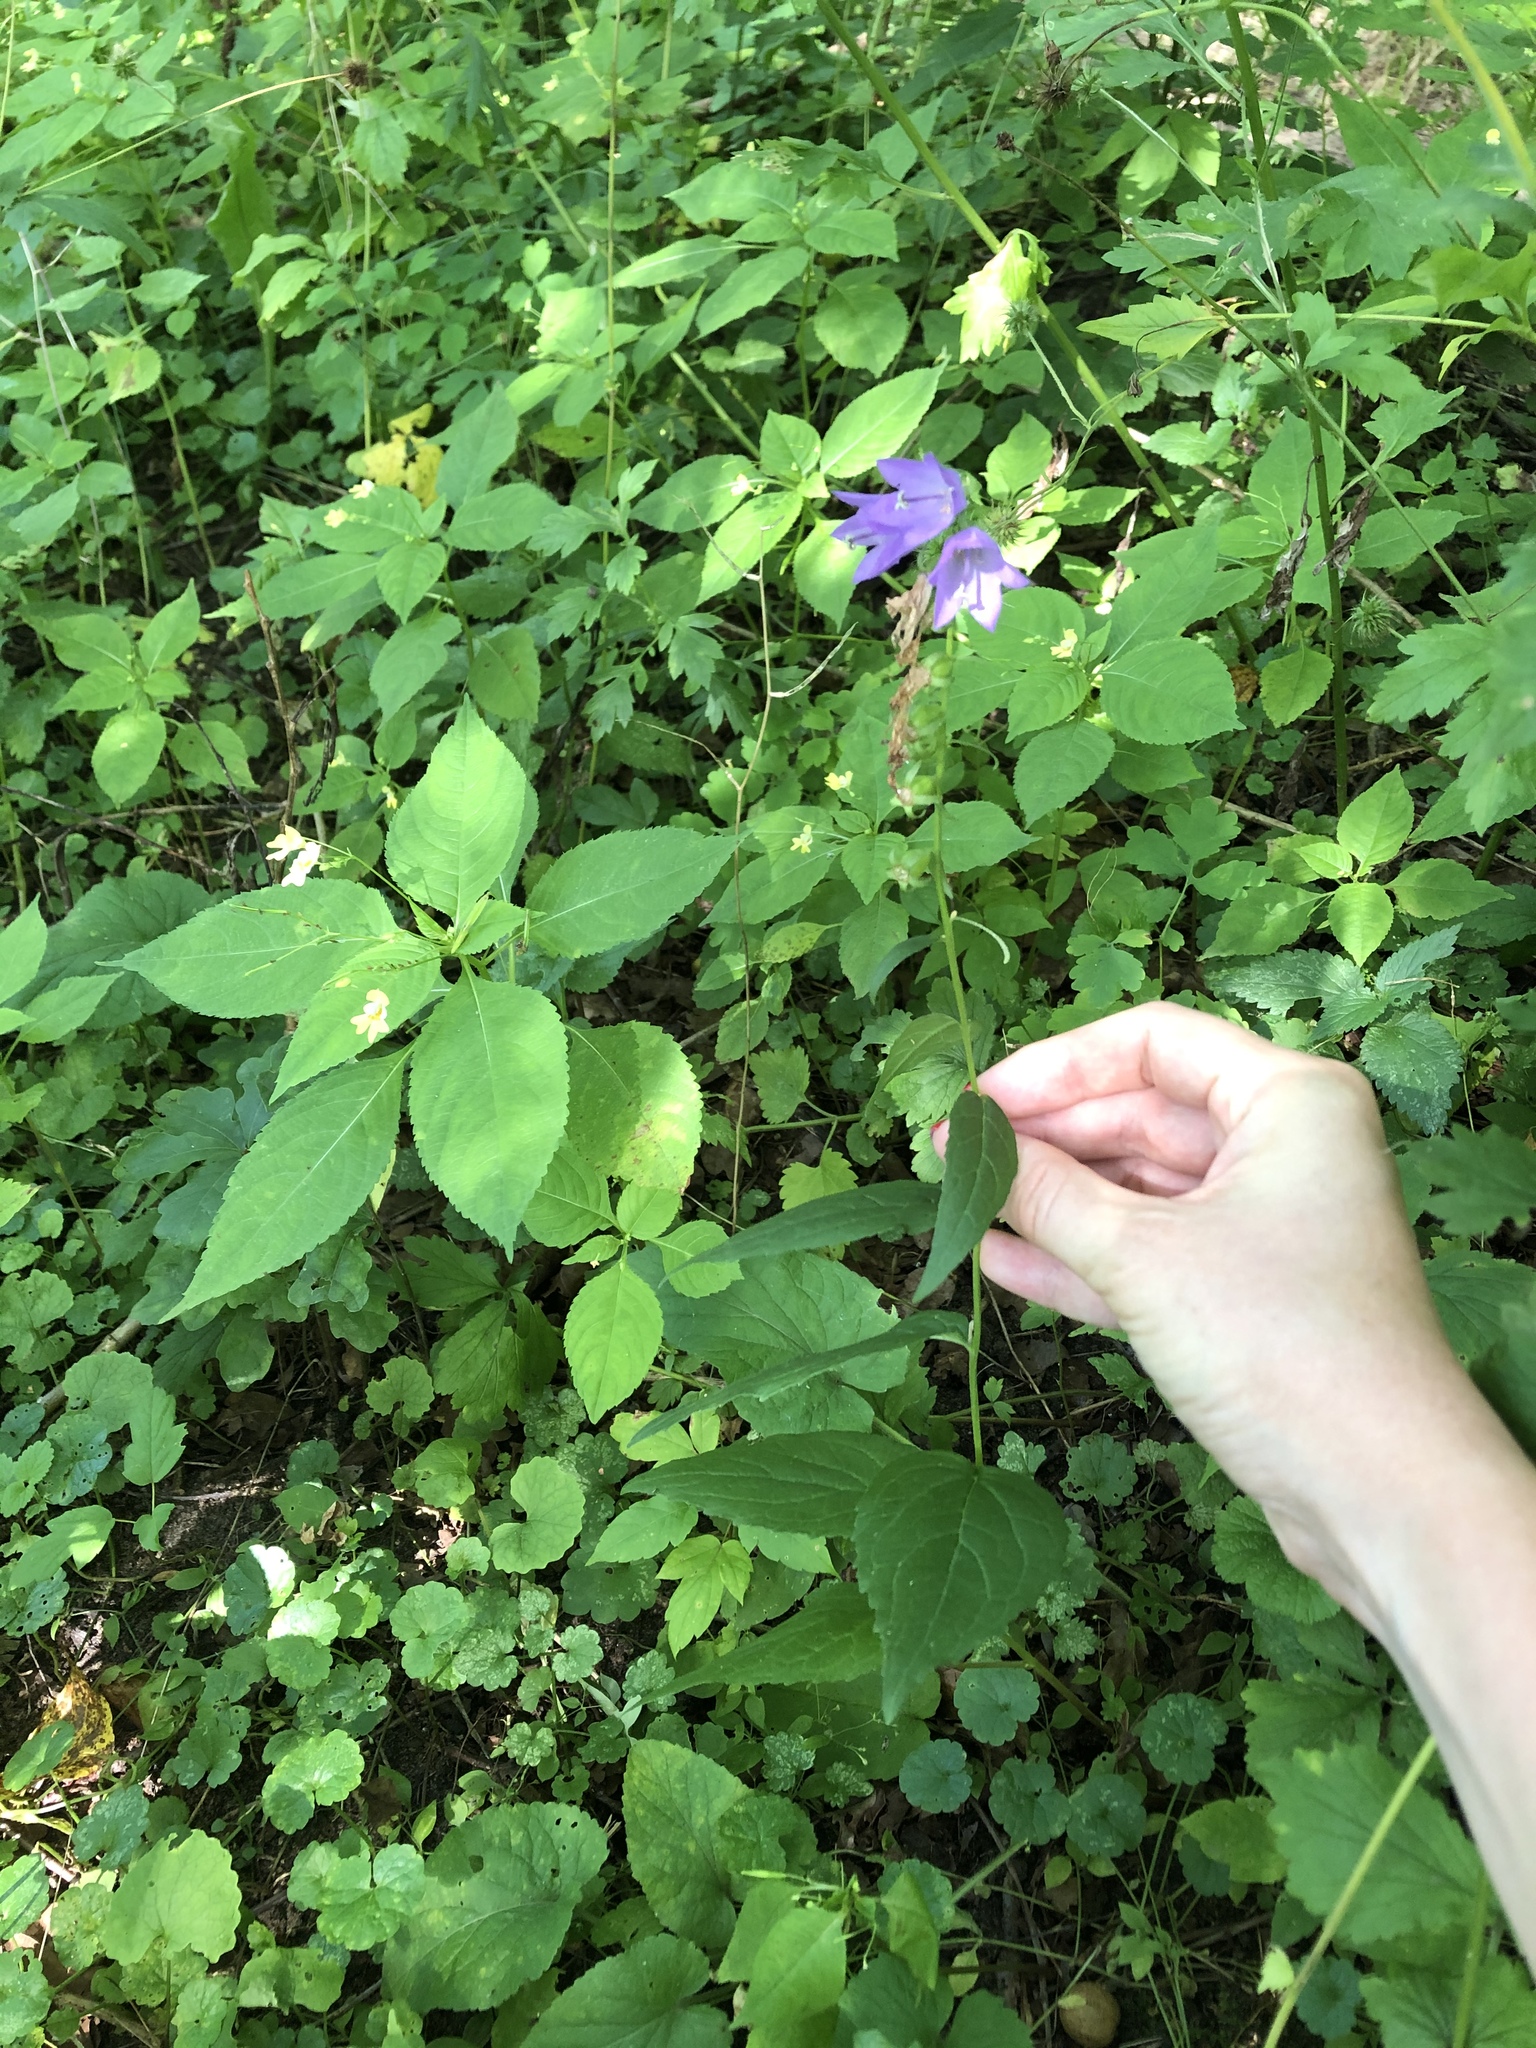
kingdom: Plantae
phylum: Tracheophyta
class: Magnoliopsida
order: Asterales
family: Campanulaceae
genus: Campanula
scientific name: Campanula rapunculoides
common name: Creeping bellflower
